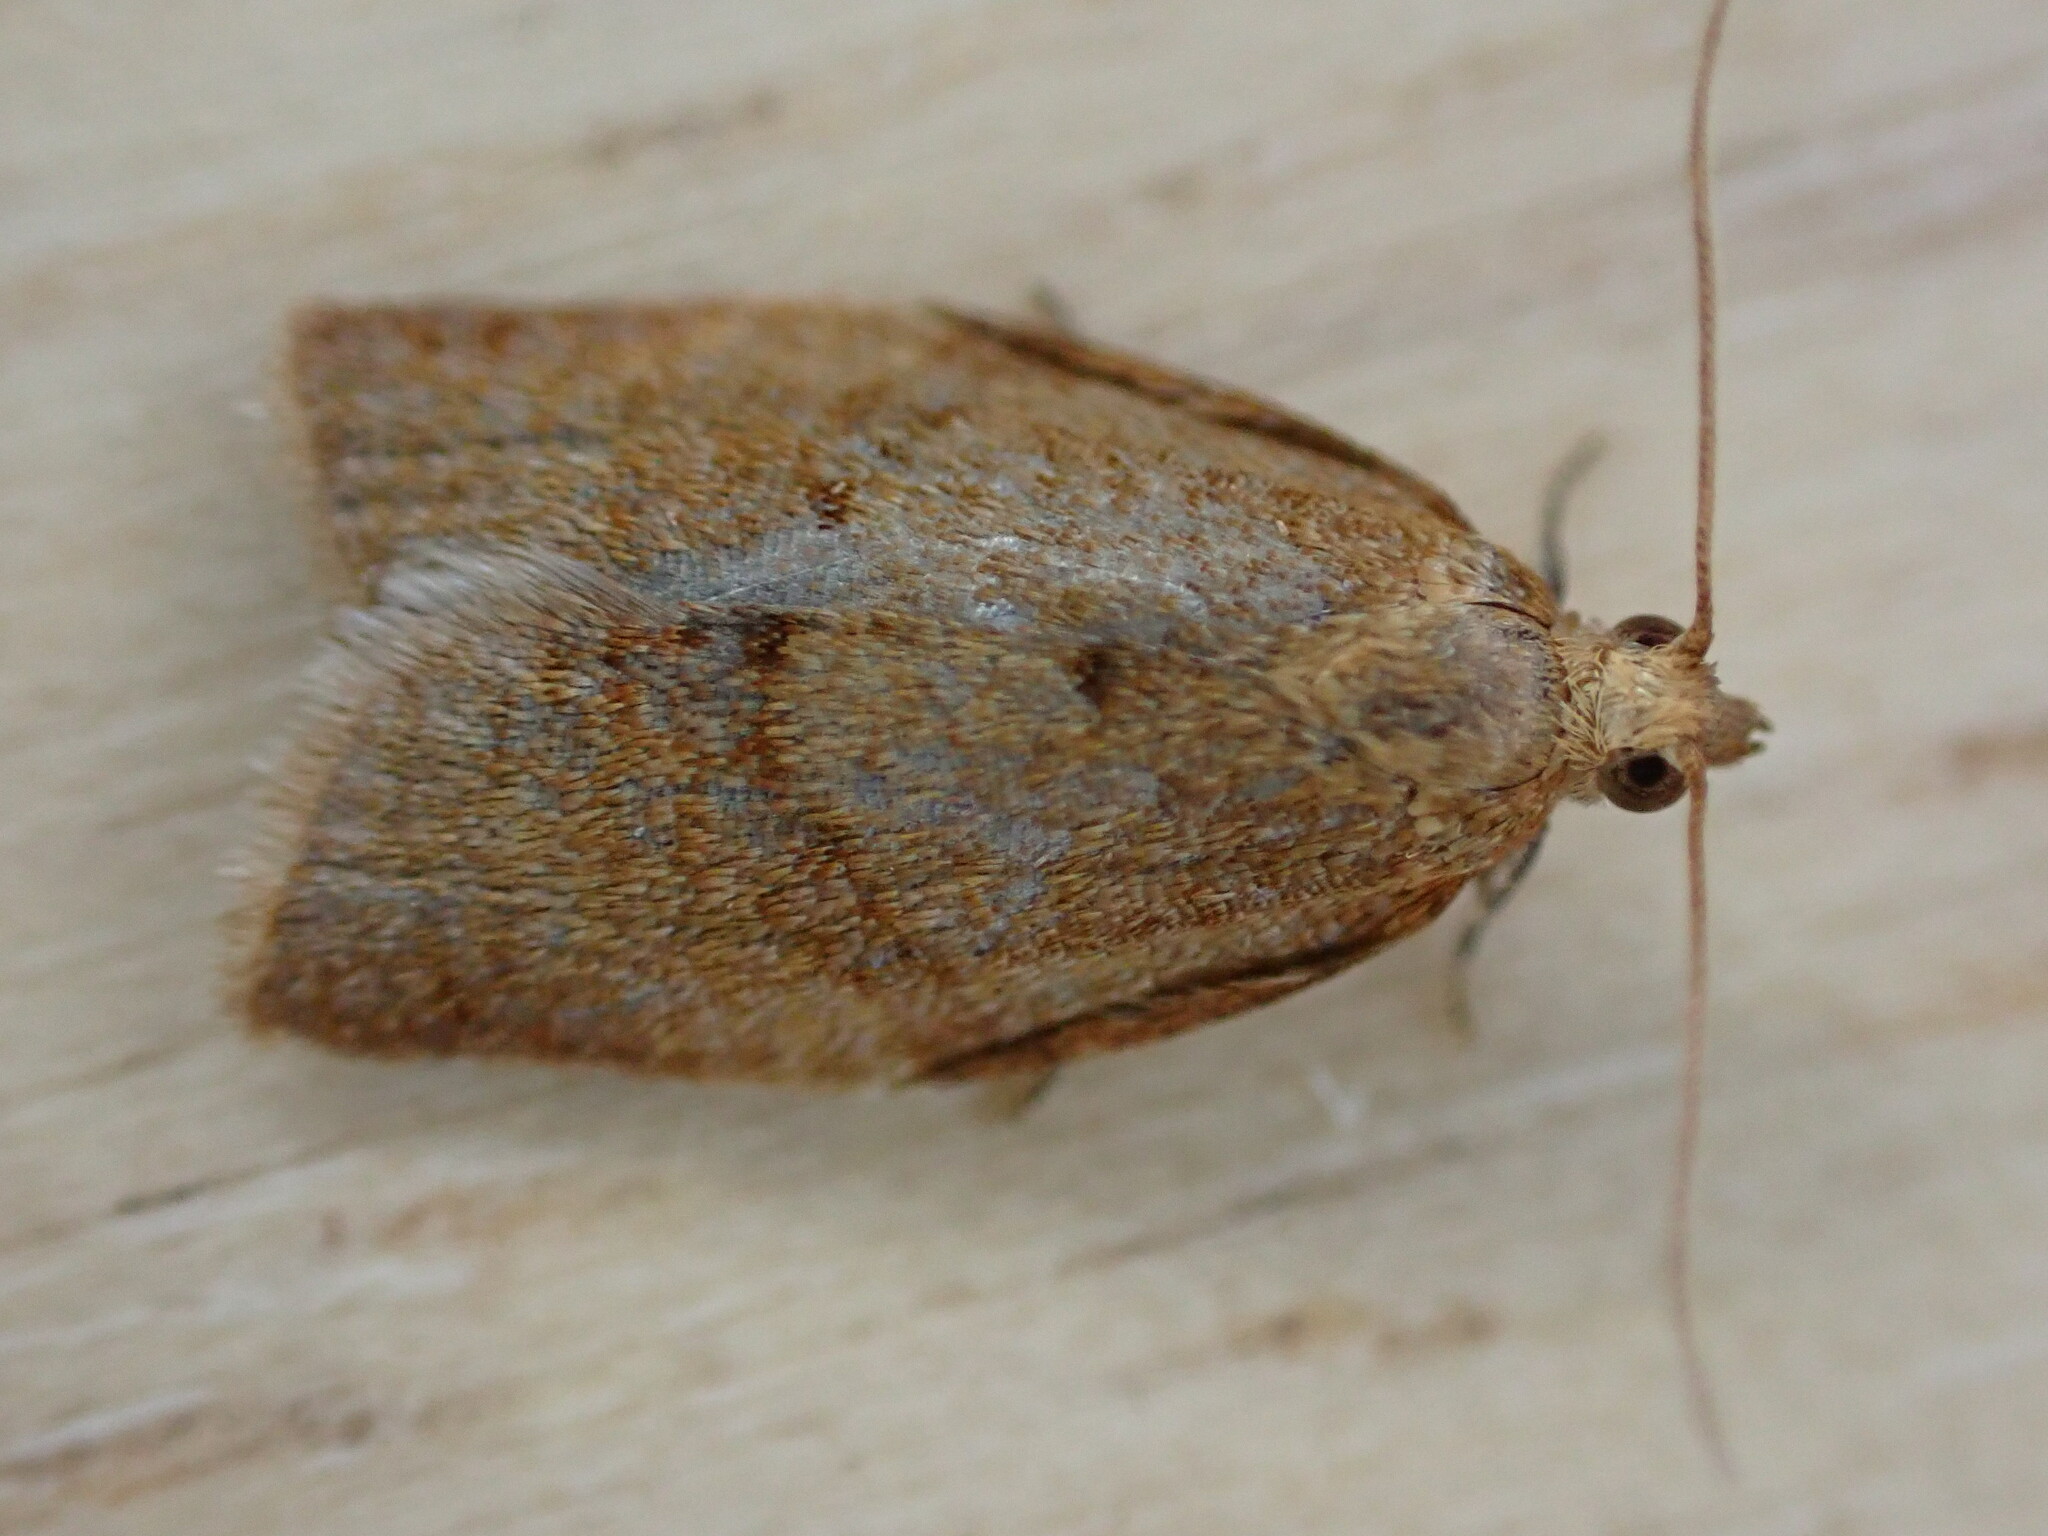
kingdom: Animalia
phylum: Arthropoda
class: Insecta
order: Lepidoptera
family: Tortricidae
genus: Clepsis
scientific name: Clepsis consimilana
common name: Privet tortrix
